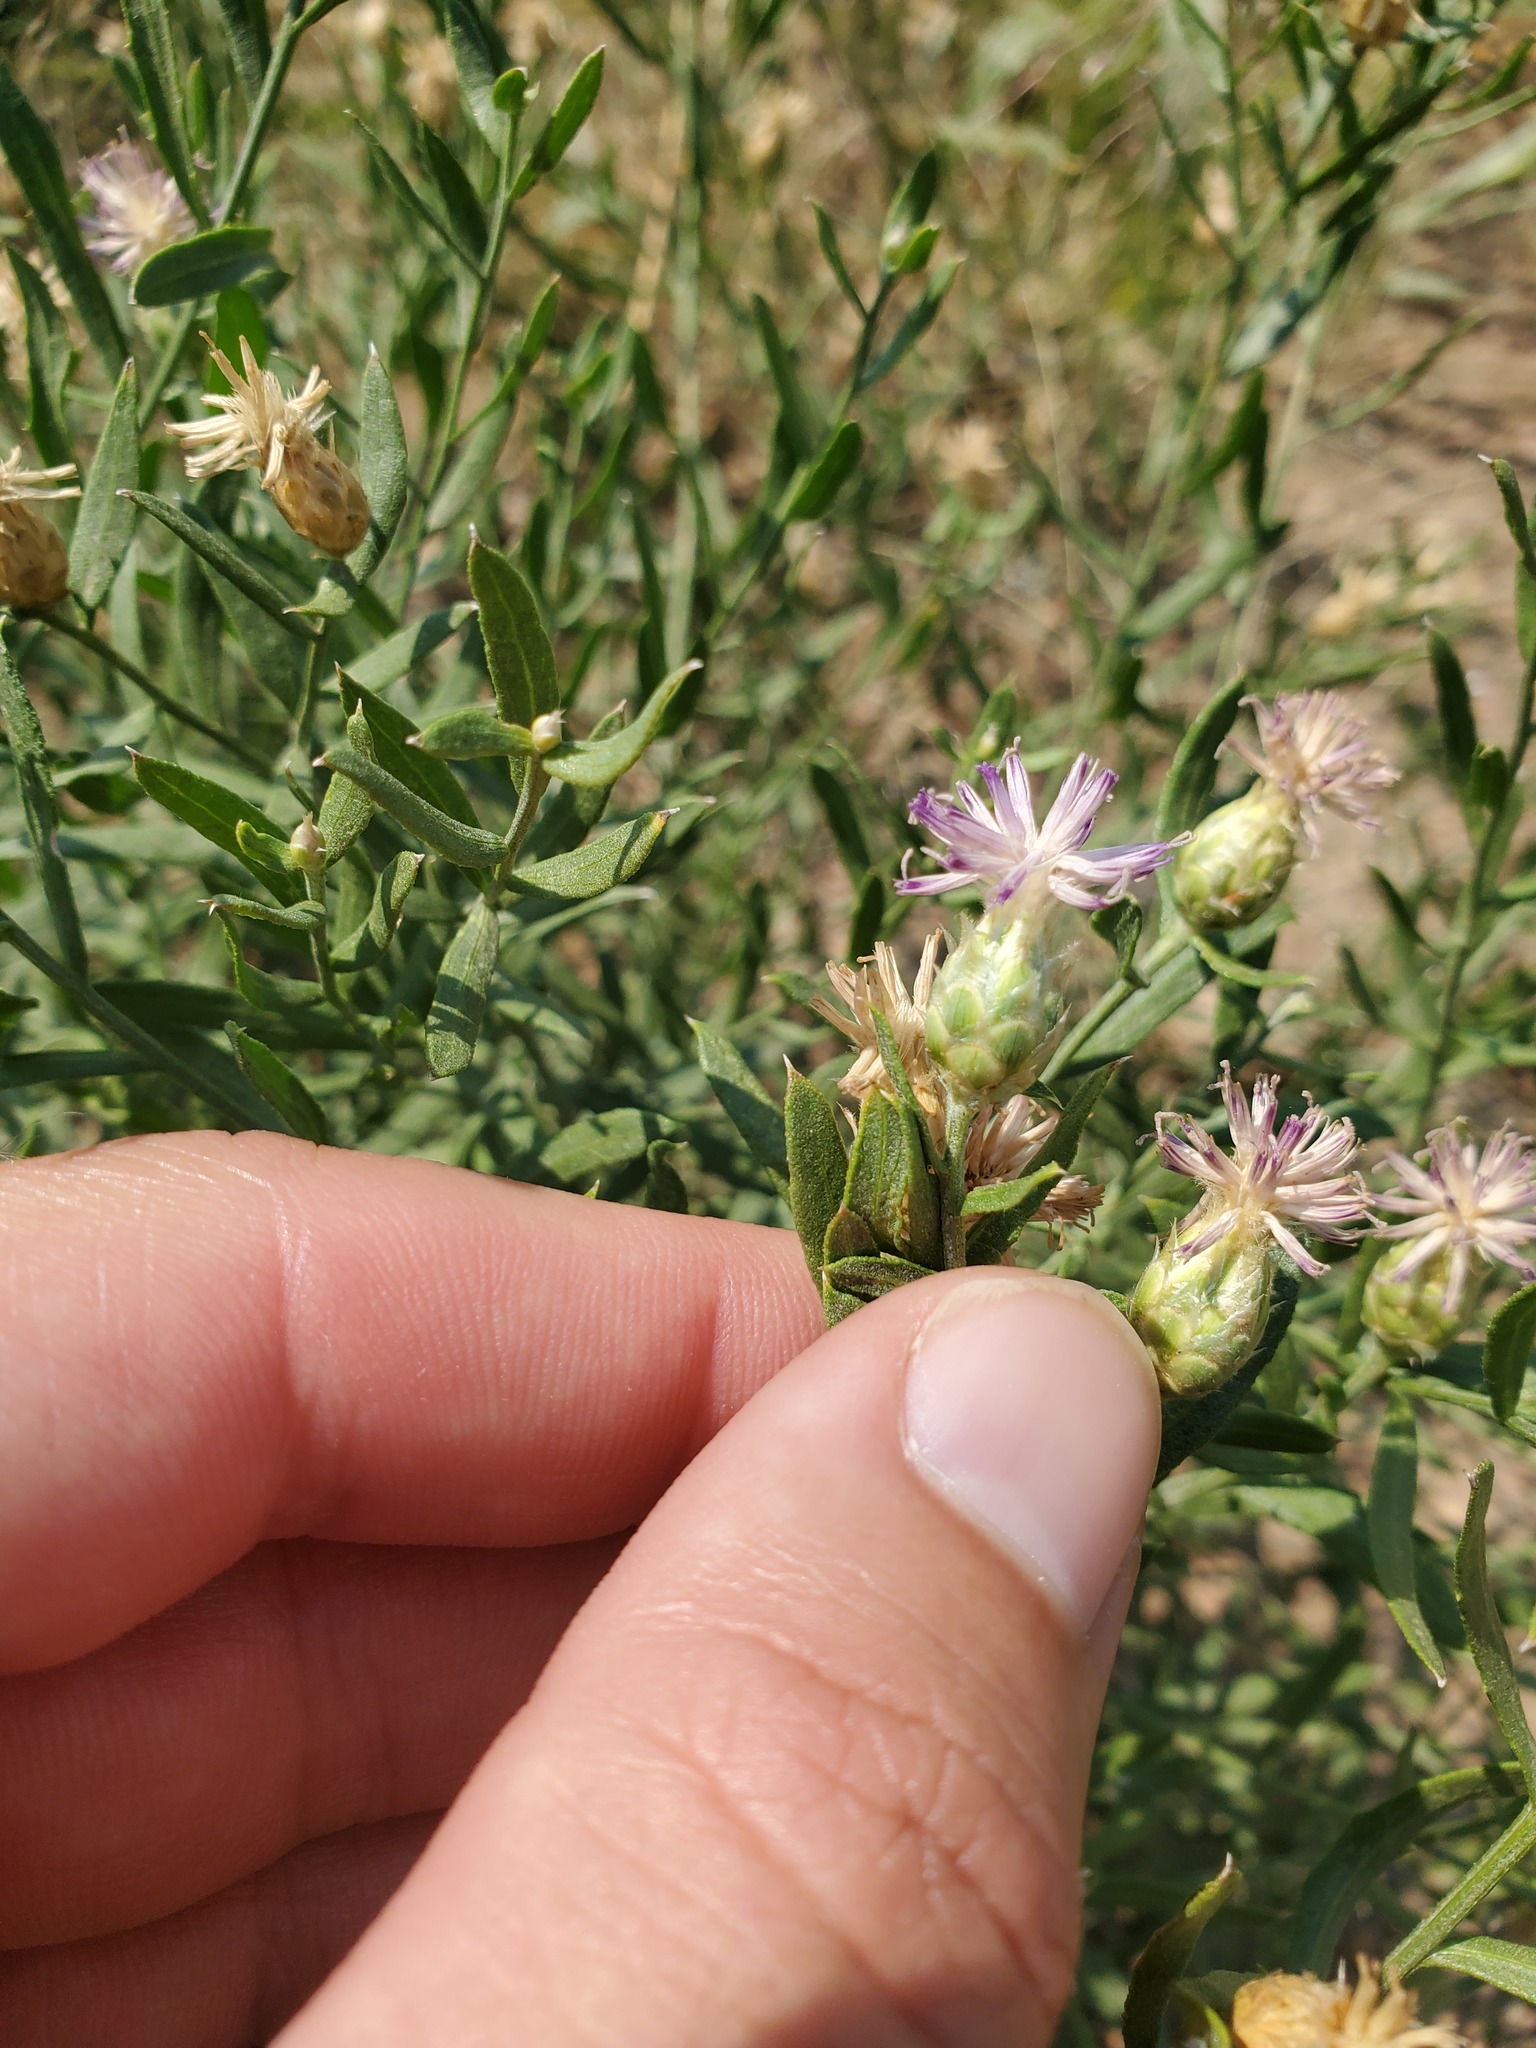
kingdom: Plantae
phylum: Tracheophyta
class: Magnoliopsida
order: Asterales
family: Asteraceae
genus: Leuzea
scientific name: Leuzea repens
